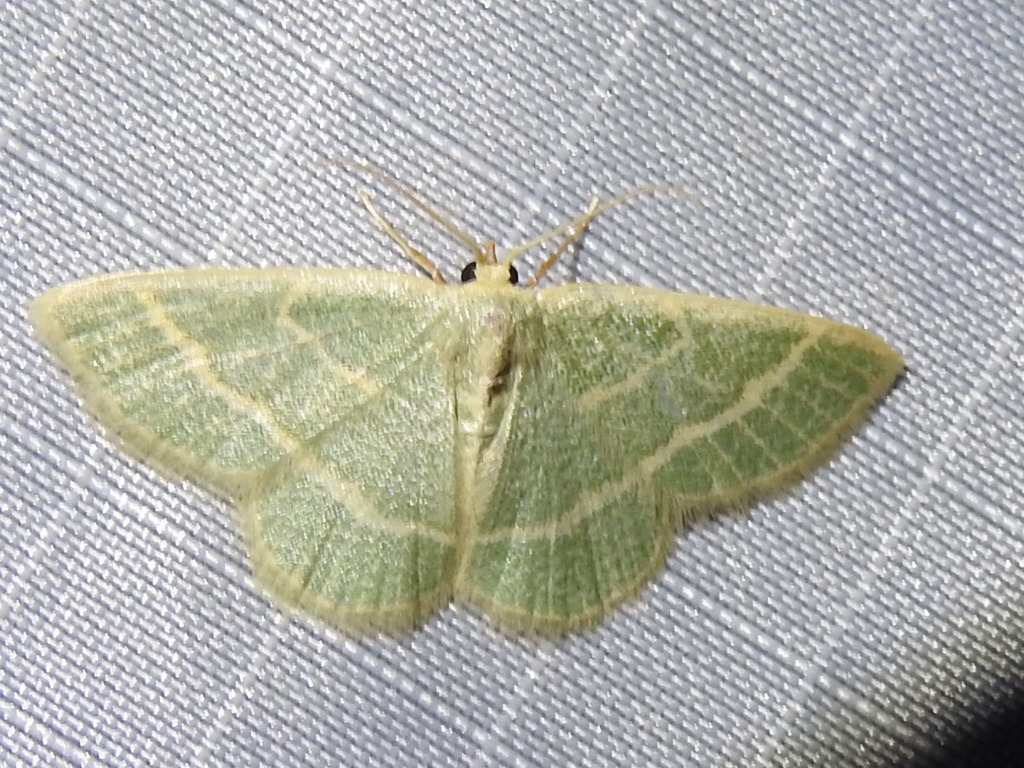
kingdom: Animalia
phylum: Arthropoda
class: Insecta
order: Lepidoptera
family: Geometridae
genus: Chlorochlamys
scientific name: Chlorochlamys chloroleucaria
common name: Blackberry looper
